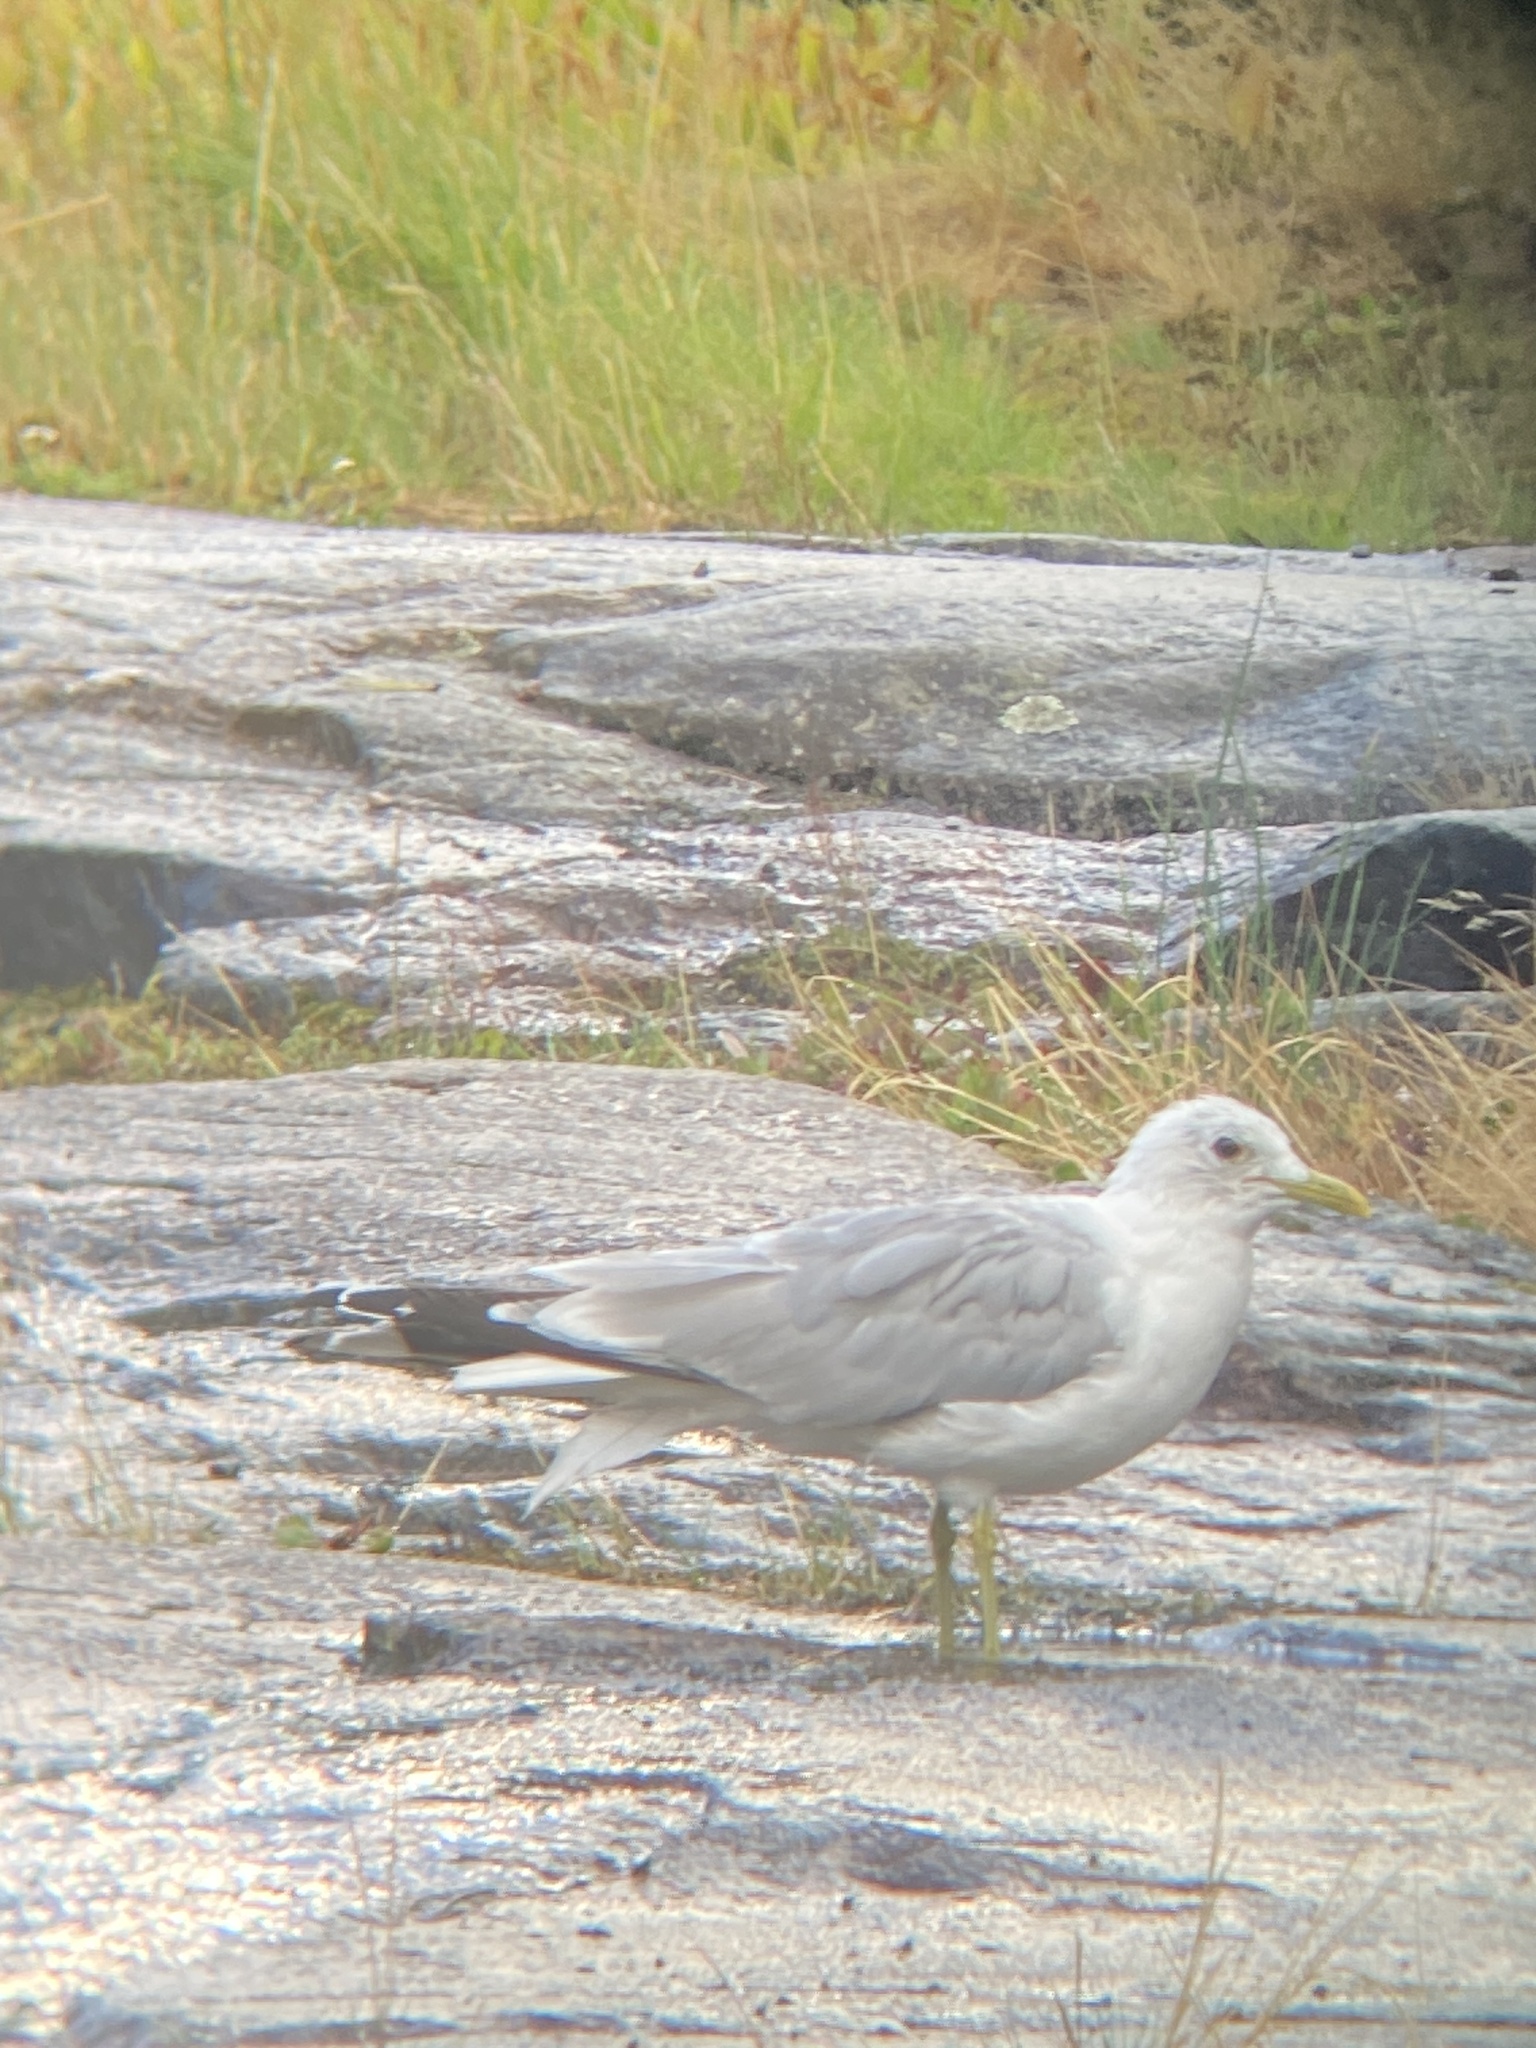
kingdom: Animalia
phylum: Chordata
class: Aves
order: Charadriiformes
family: Laridae
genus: Larus
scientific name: Larus canus
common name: Mew gull
